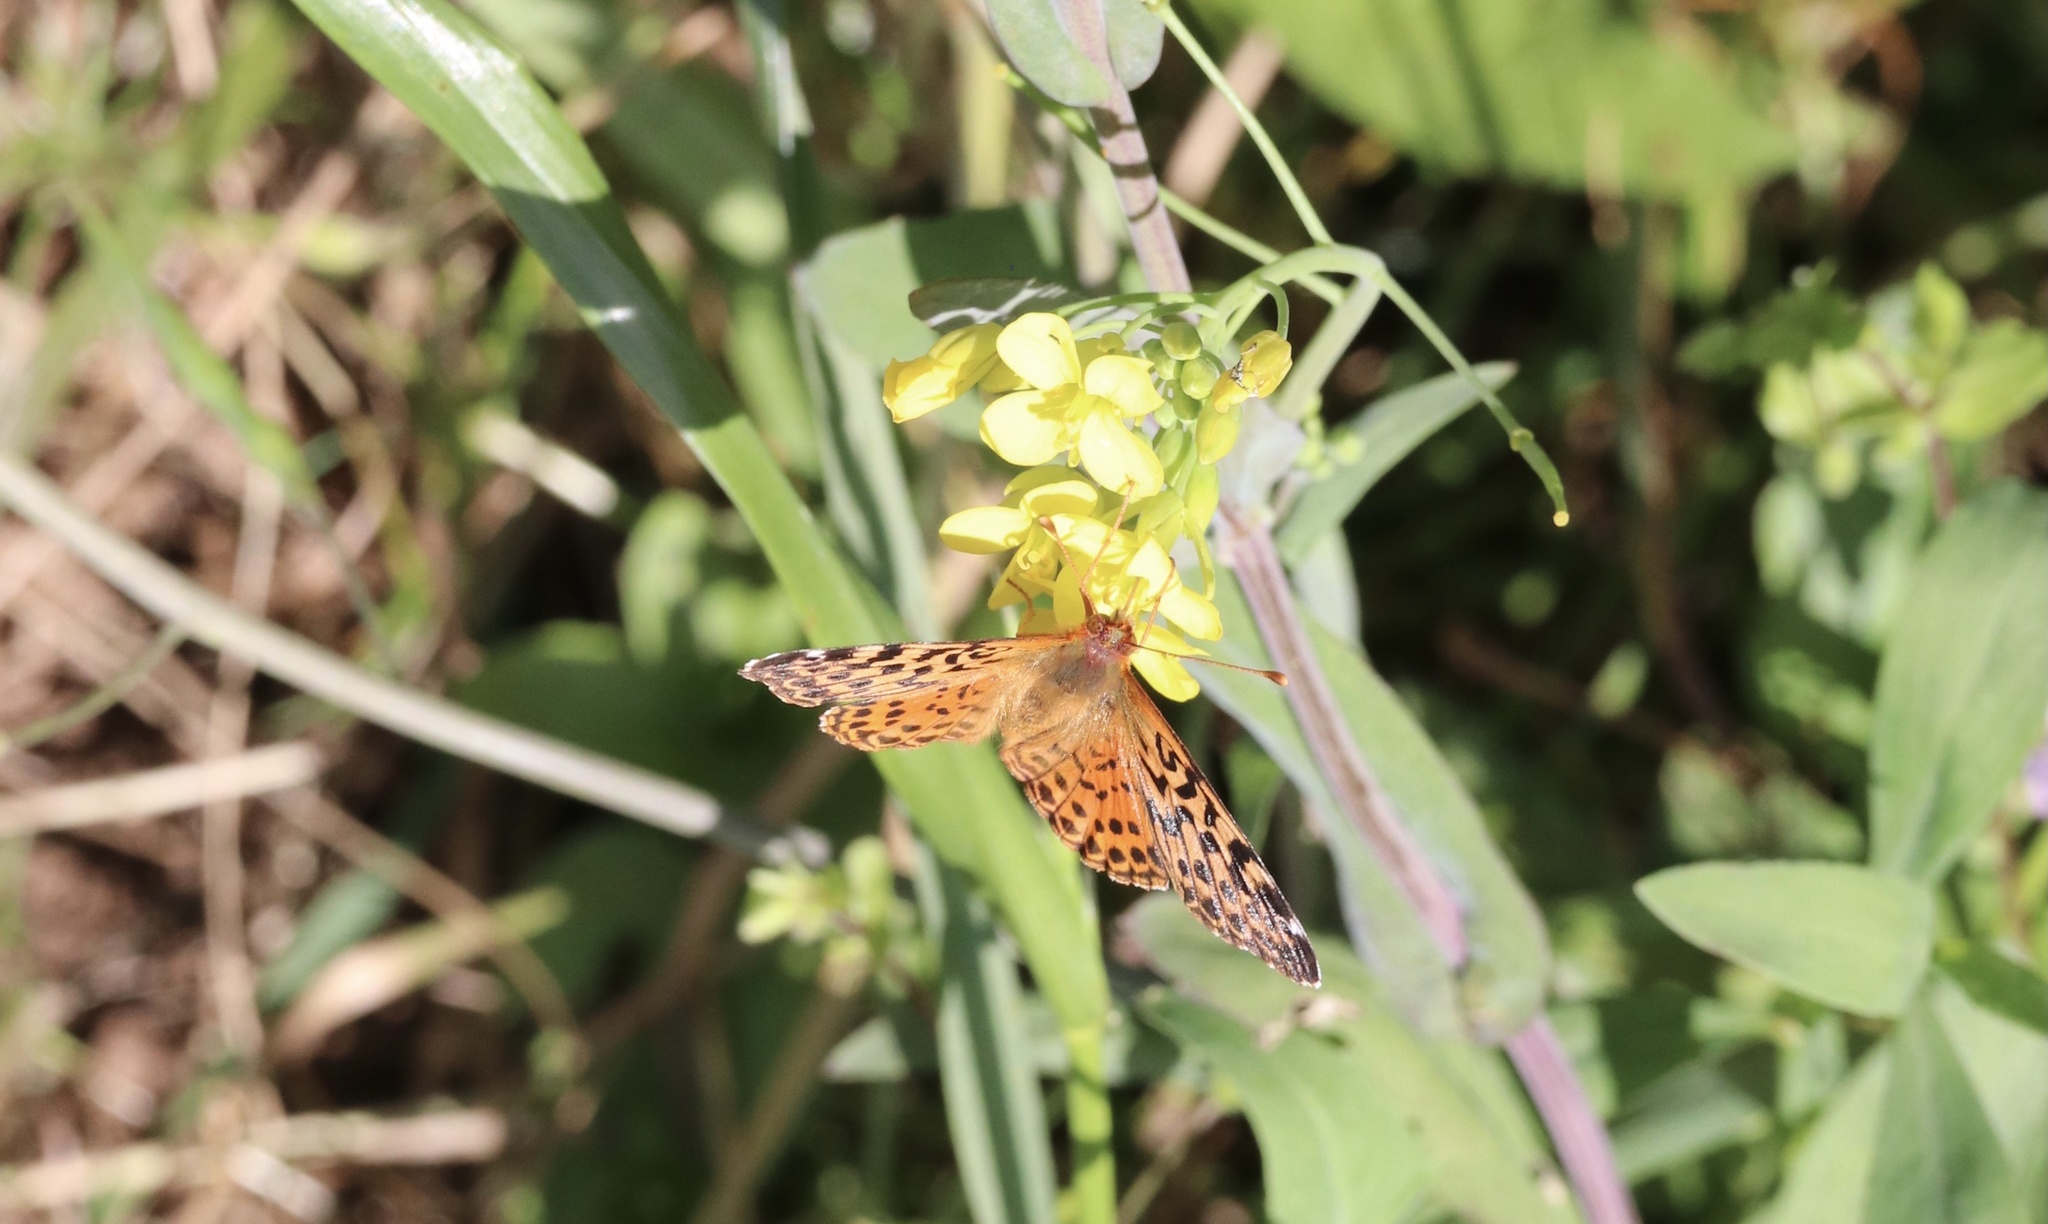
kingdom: Animalia
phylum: Arthropoda
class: Insecta
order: Lepidoptera
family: Nymphalidae
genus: Issoria
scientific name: Issoria Yramea cytheris
